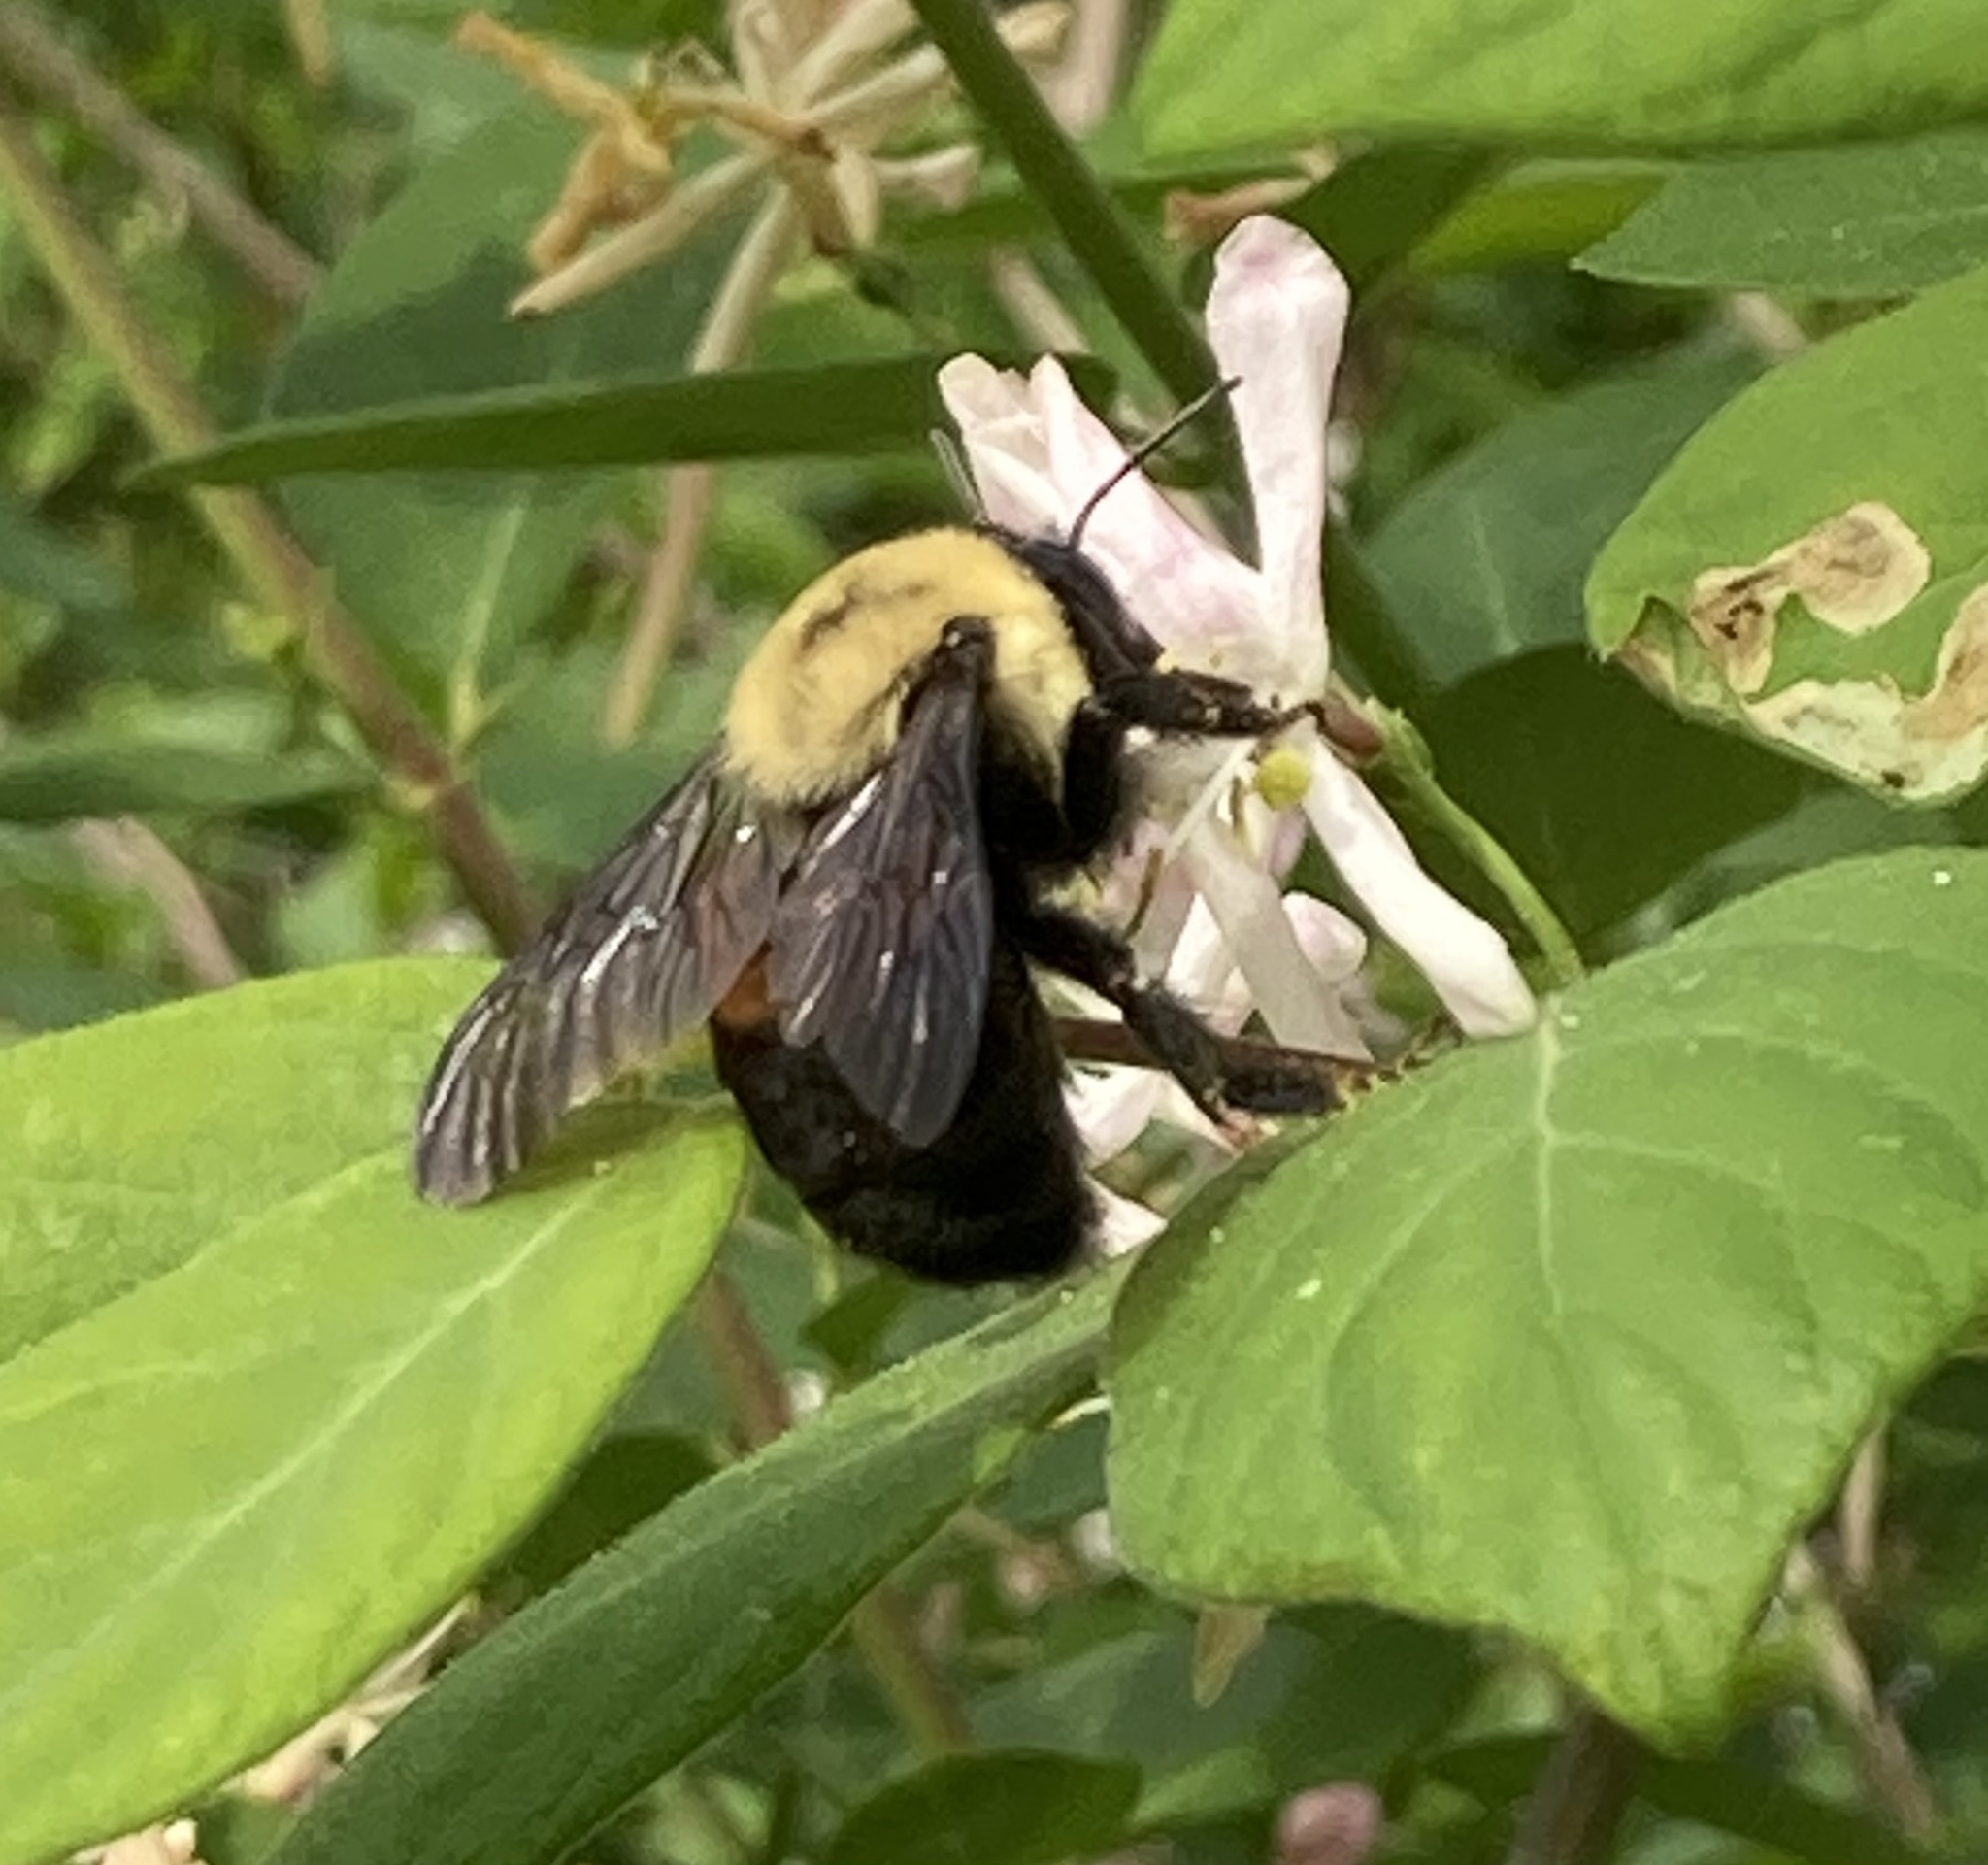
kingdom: Animalia
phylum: Arthropoda
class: Insecta
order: Hymenoptera
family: Apidae
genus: Bombus
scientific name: Bombus griseocollis
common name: Brown-belted bumble bee
